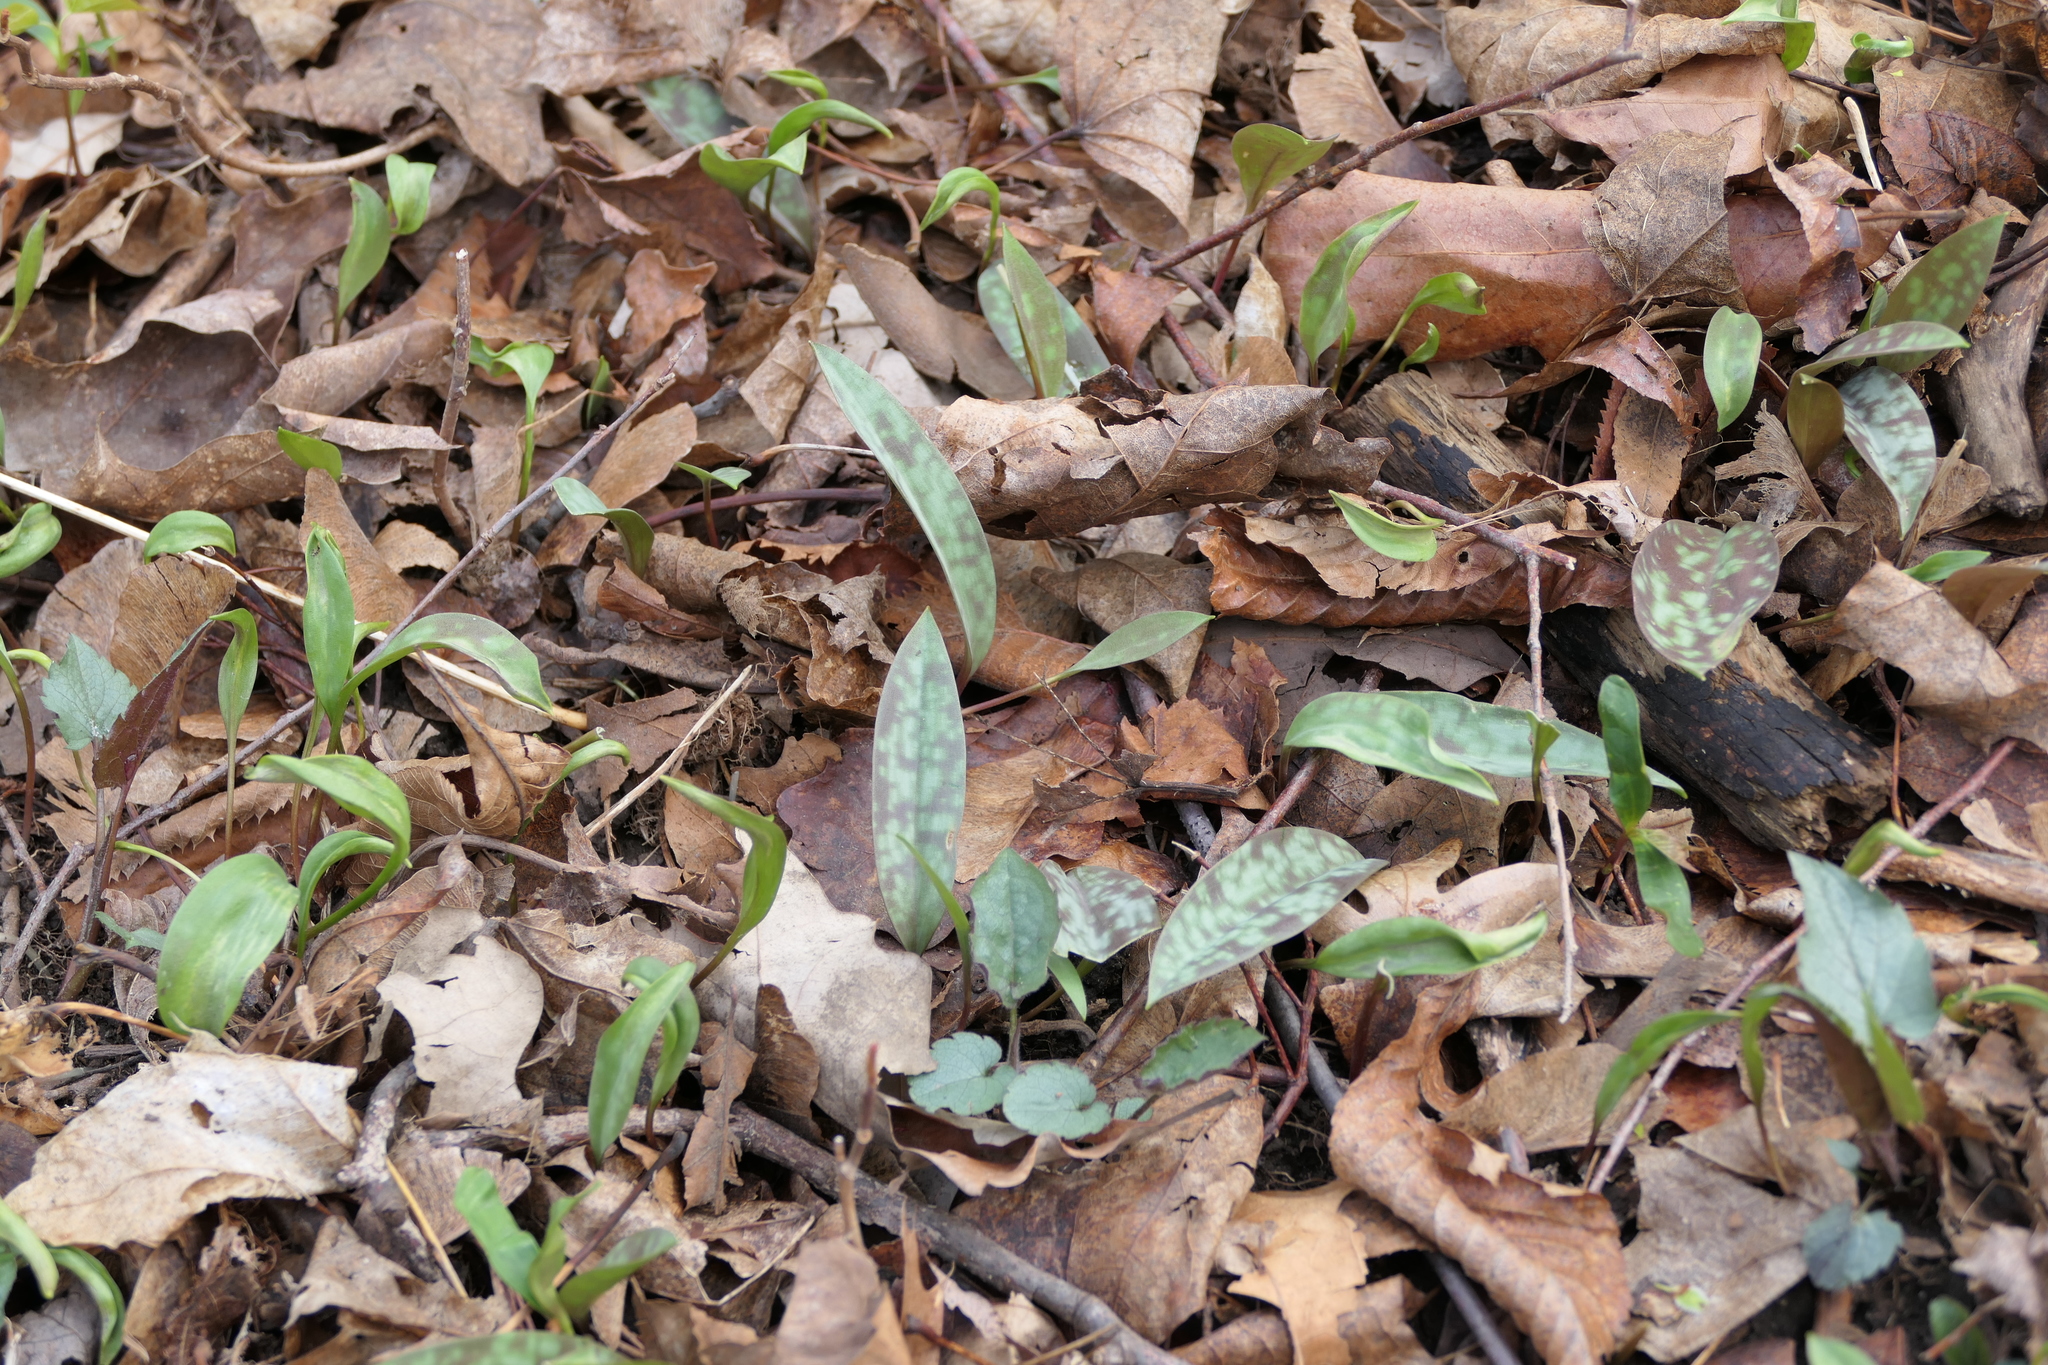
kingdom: Plantae
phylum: Tracheophyta
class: Liliopsida
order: Liliales
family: Liliaceae
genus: Erythronium
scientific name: Erythronium americanum
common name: Yellow adder's-tongue
